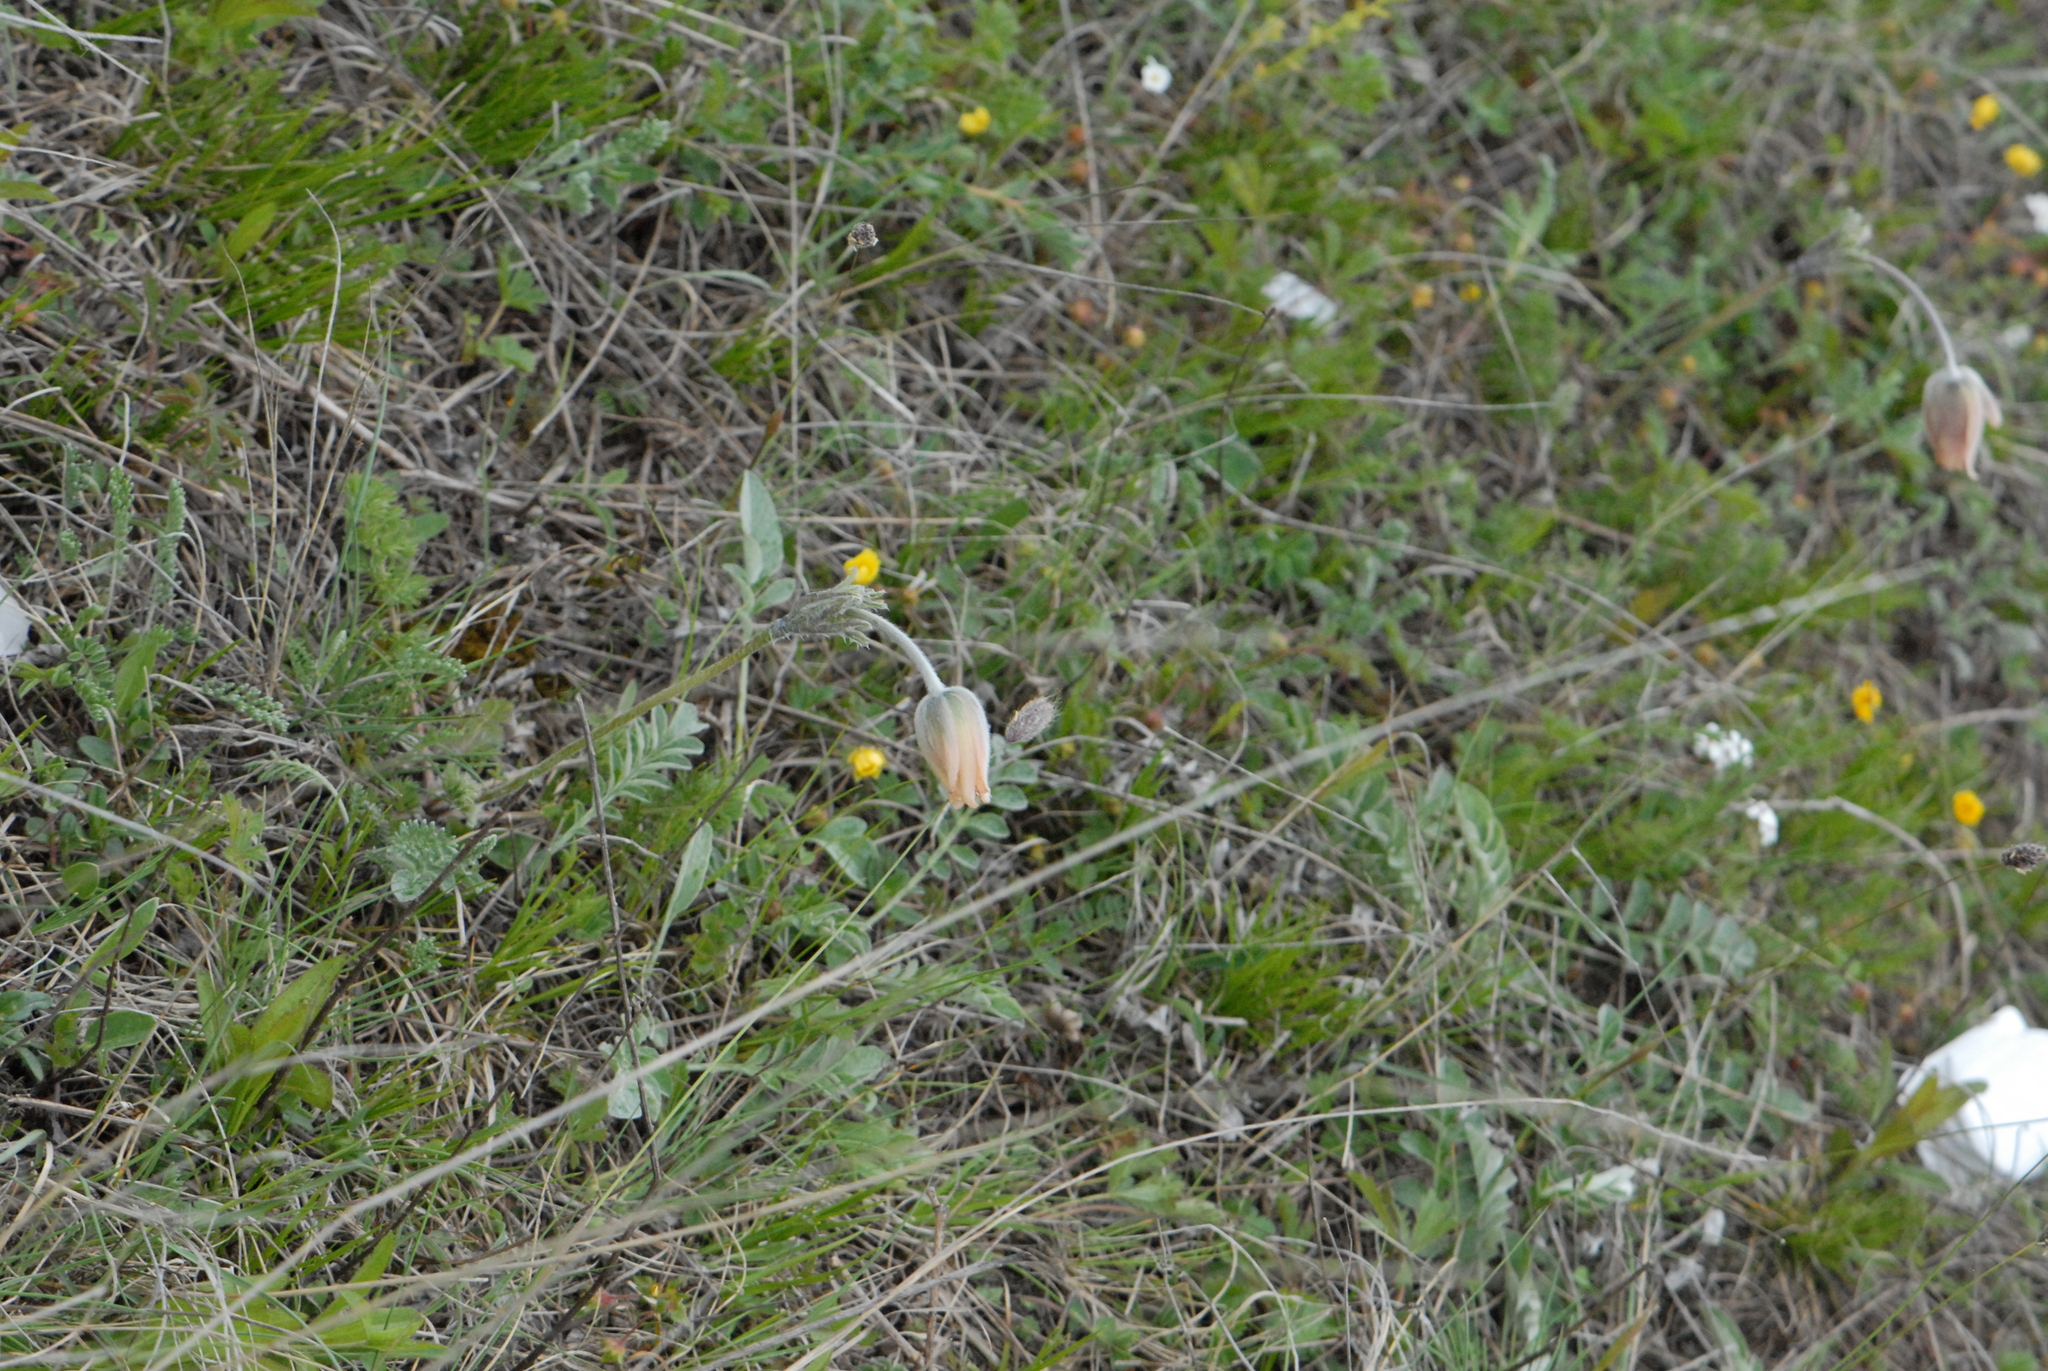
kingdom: Plantae
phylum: Tracheophyta
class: Magnoliopsida
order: Ranunculales
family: Ranunculaceae
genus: Pulsatilla
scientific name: Pulsatilla albana
